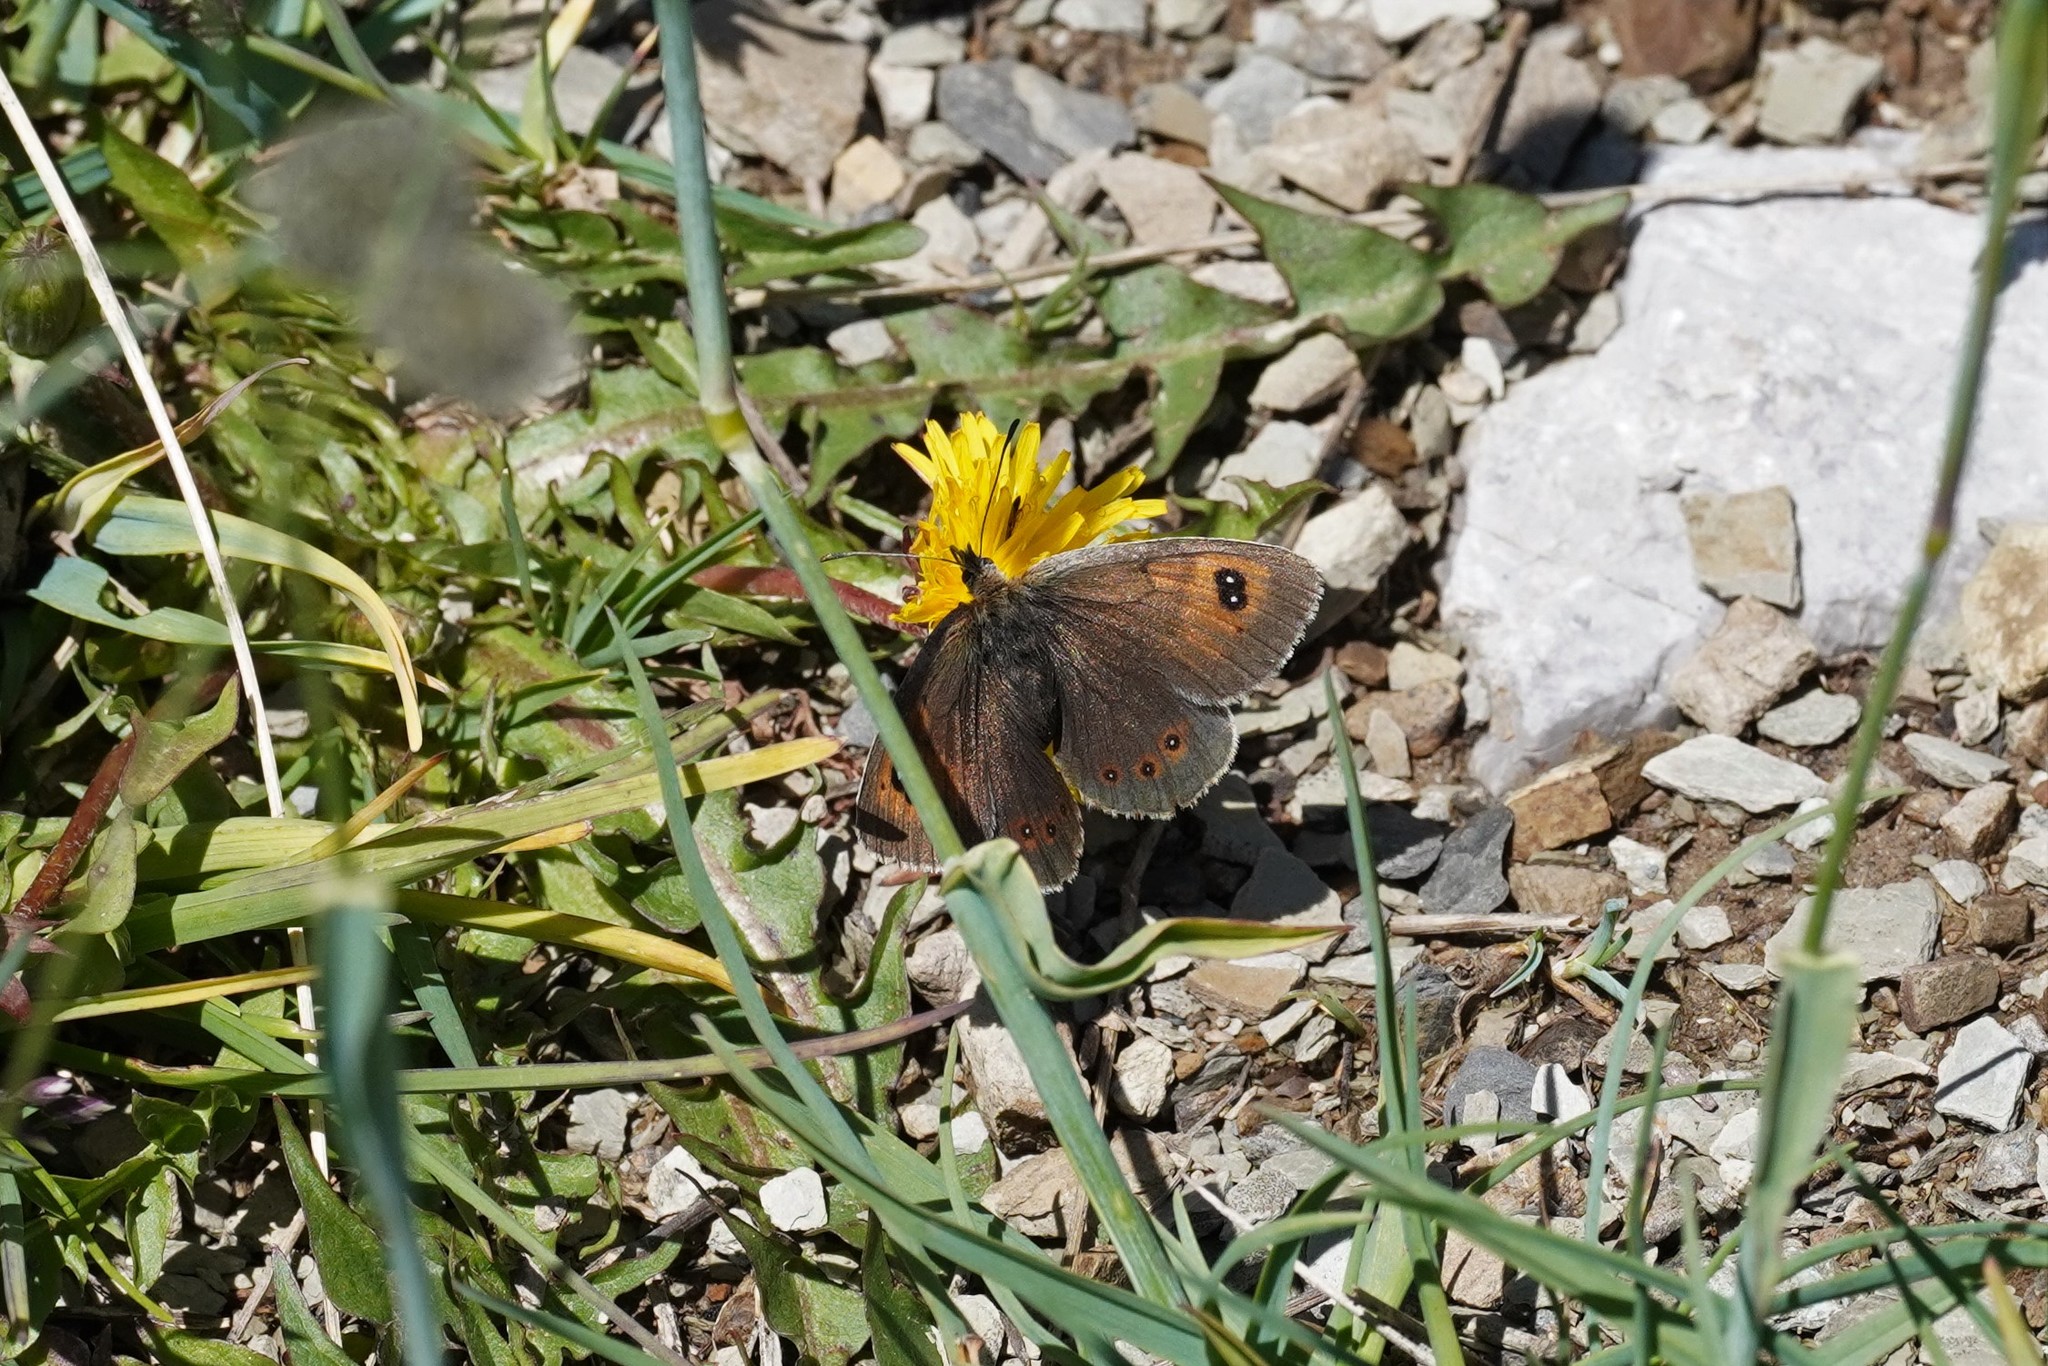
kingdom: Animalia
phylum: Arthropoda
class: Insecta
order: Lepidoptera
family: Nymphalidae
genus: Erebia
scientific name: Erebia cassioides
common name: Common brassy ringlet
